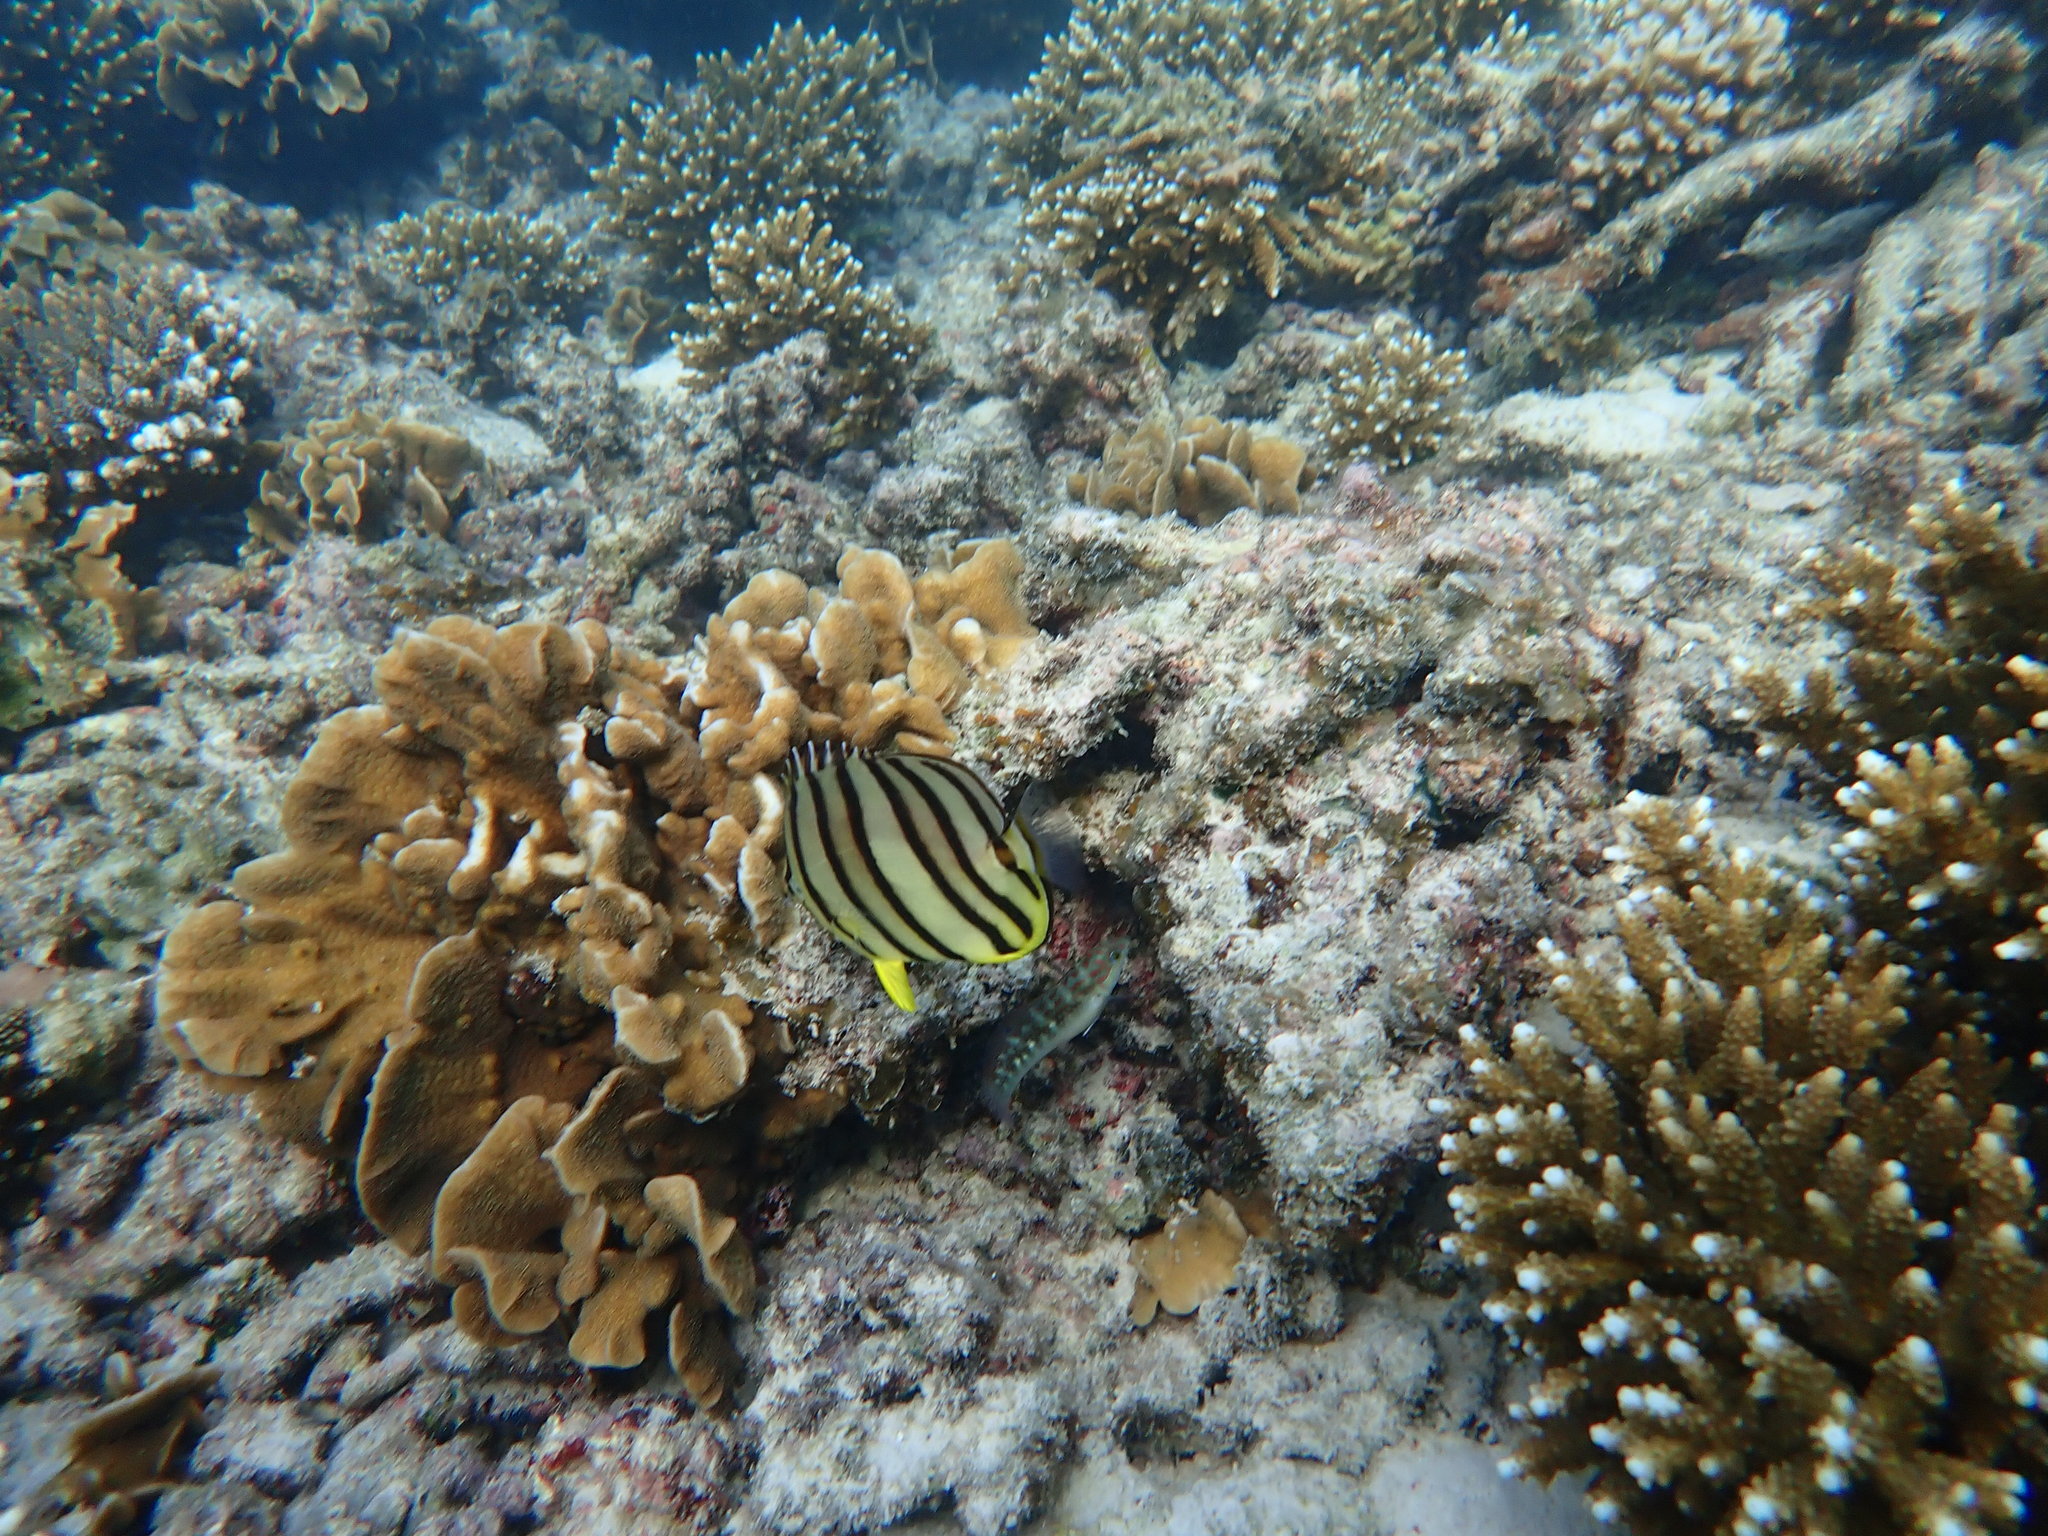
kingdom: Animalia
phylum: Chordata
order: Perciformes
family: Chaetodontidae
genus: Chaetodon
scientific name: Chaetodon octofasciatus
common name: Eightband butterflyfish
